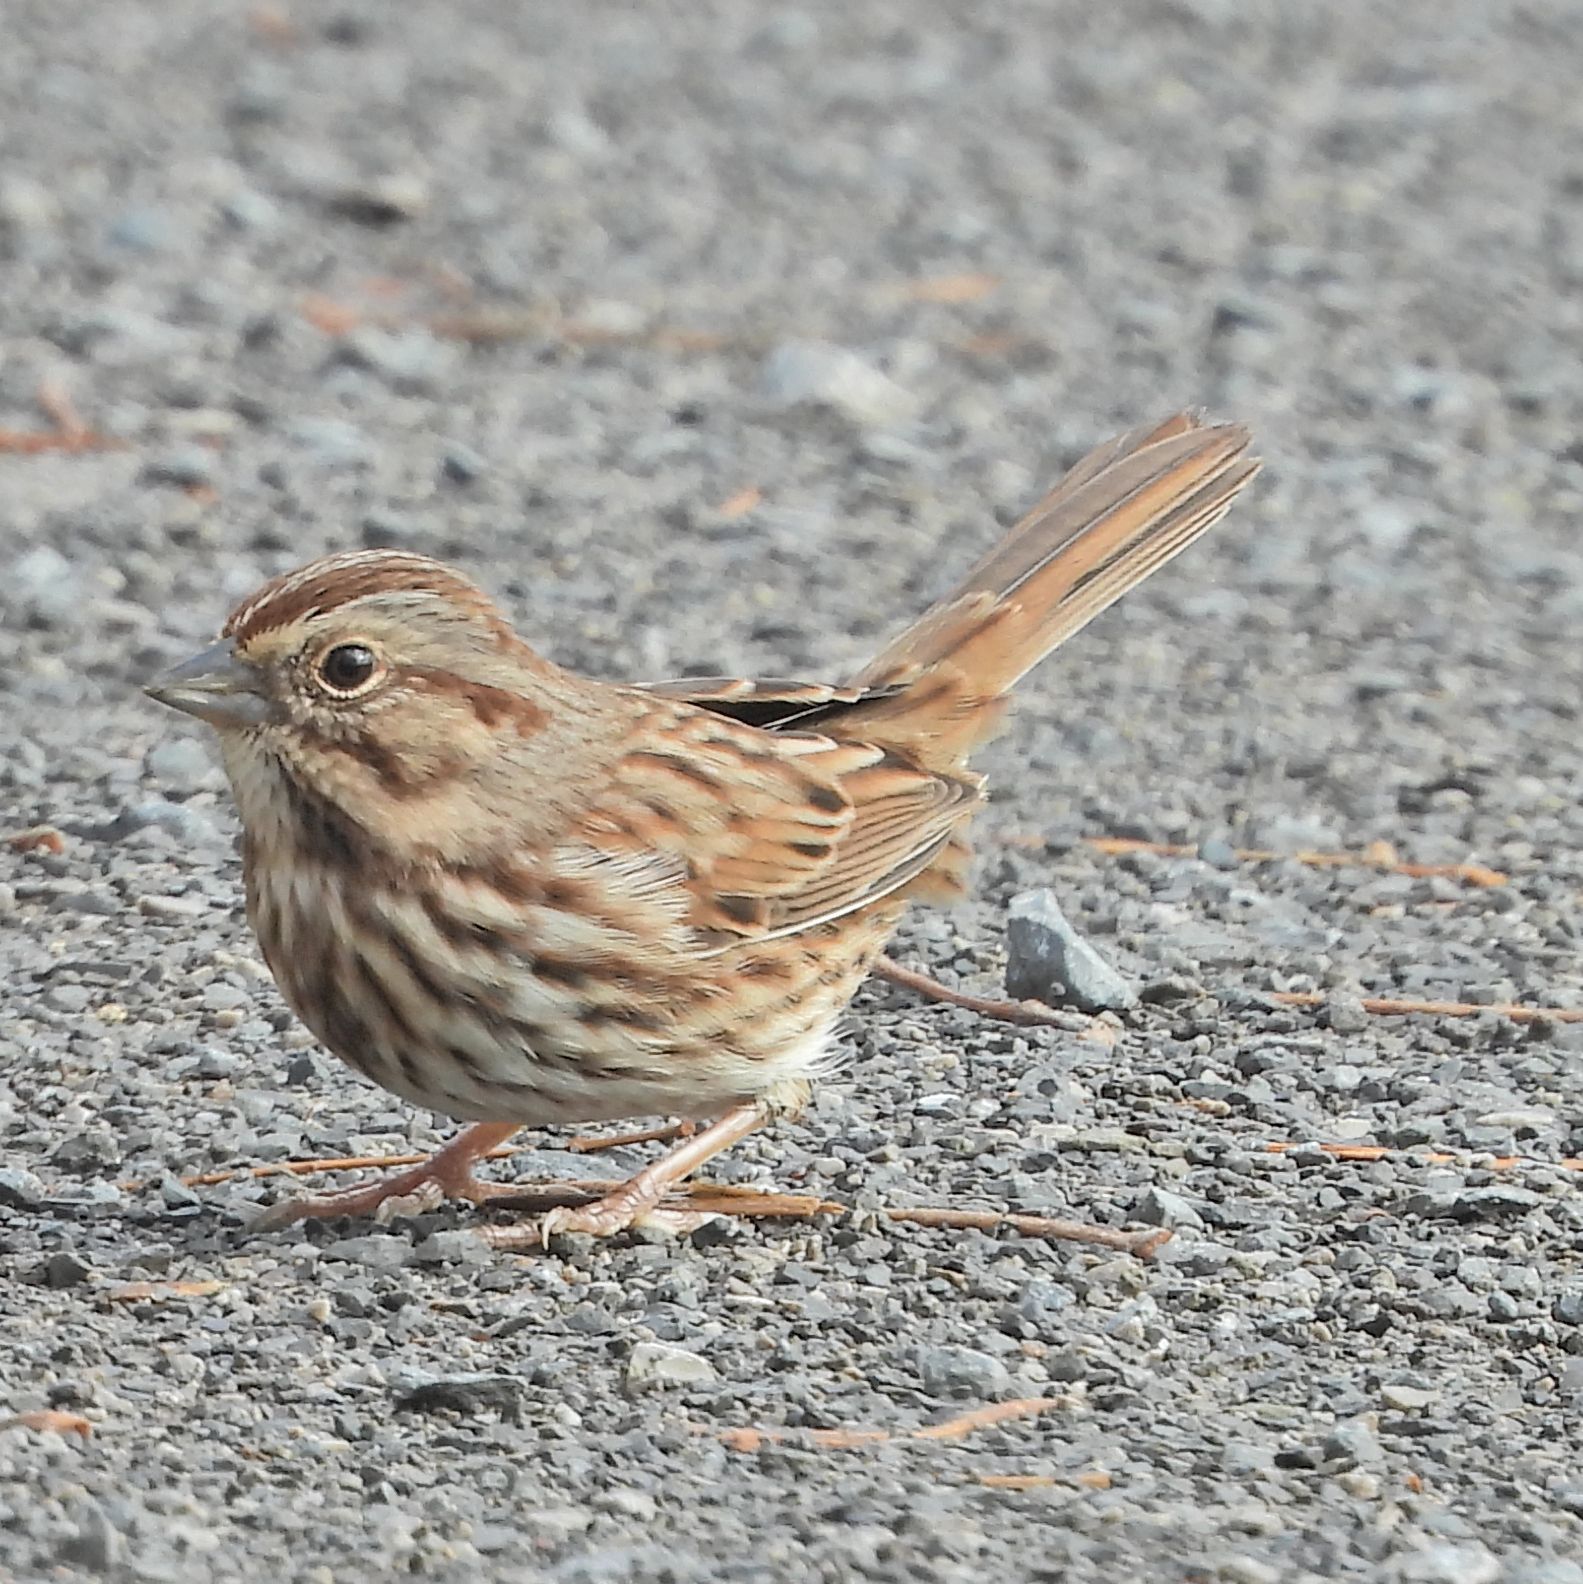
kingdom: Animalia
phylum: Chordata
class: Aves
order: Passeriformes
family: Passerellidae
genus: Melospiza
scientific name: Melospiza melodia
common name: Song sparrow
